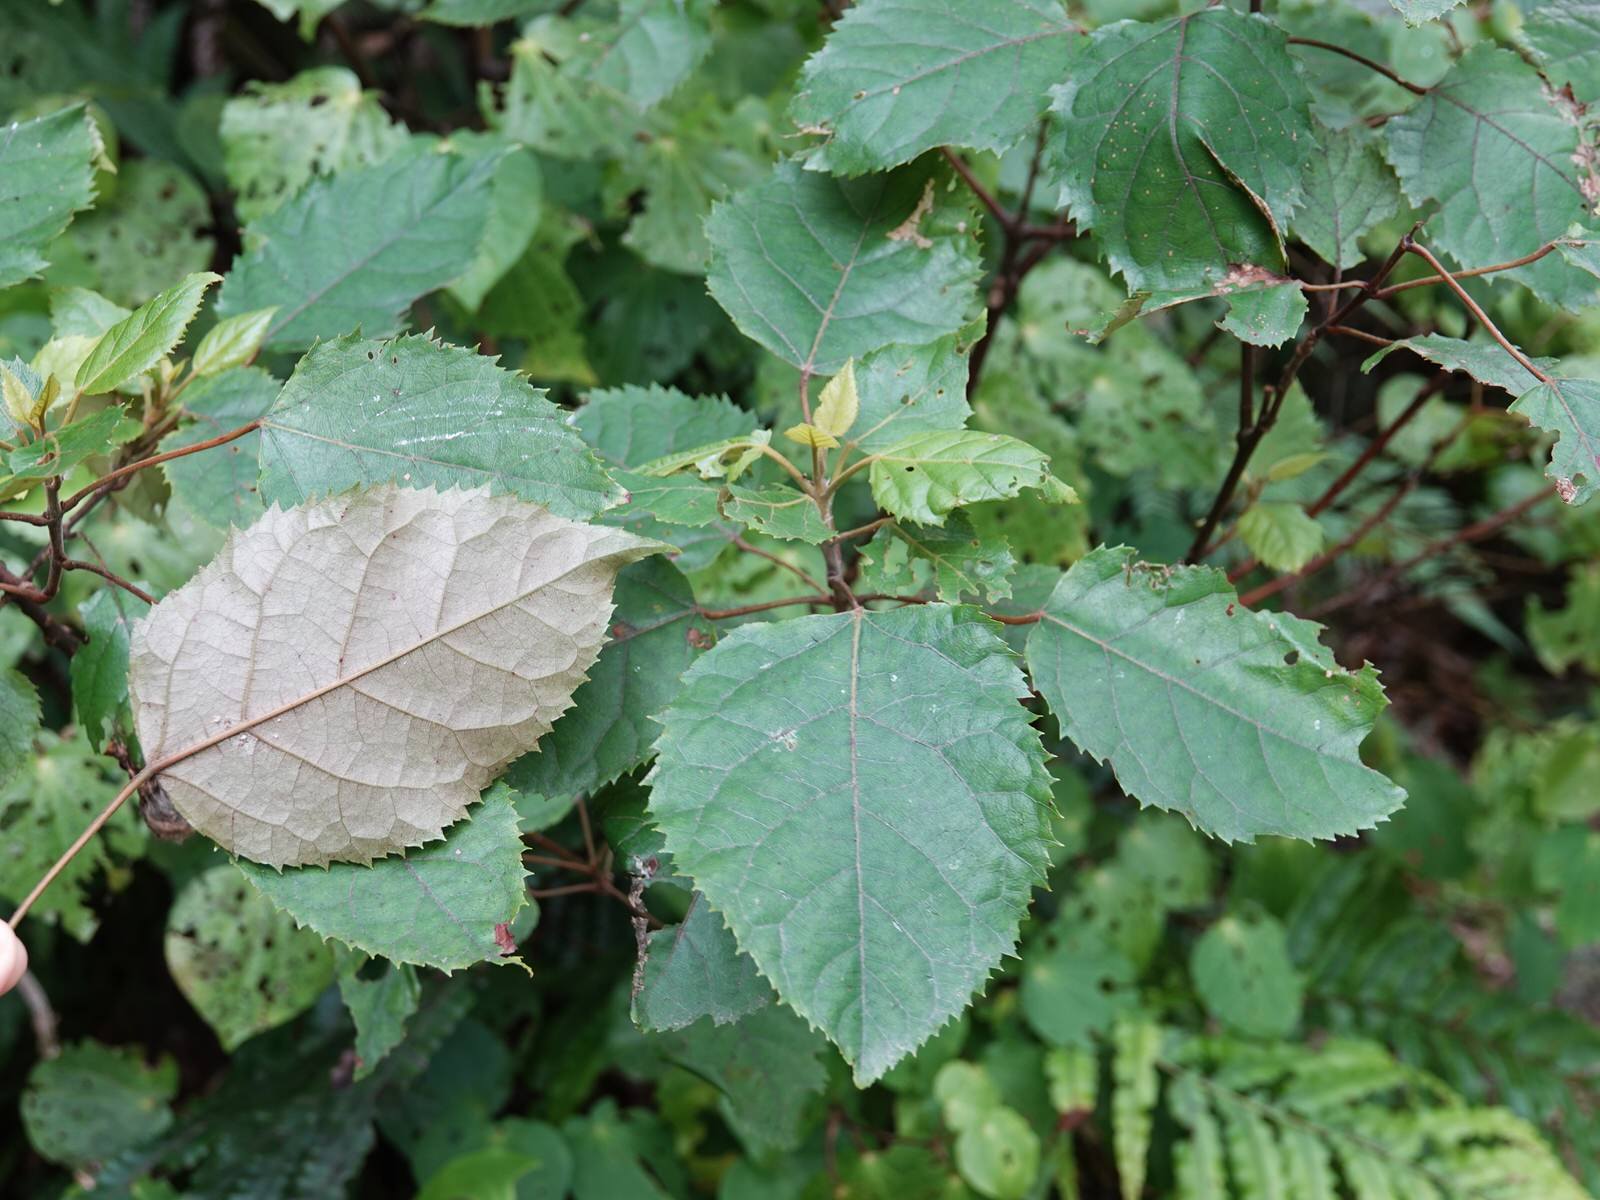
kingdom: Plantae
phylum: Tracheophyta
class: Magnoliopsida
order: Oxalidales
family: Elaeocarpaceae
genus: Aristotelia
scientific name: Aristotelia serrata
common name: New zealand wineberry
